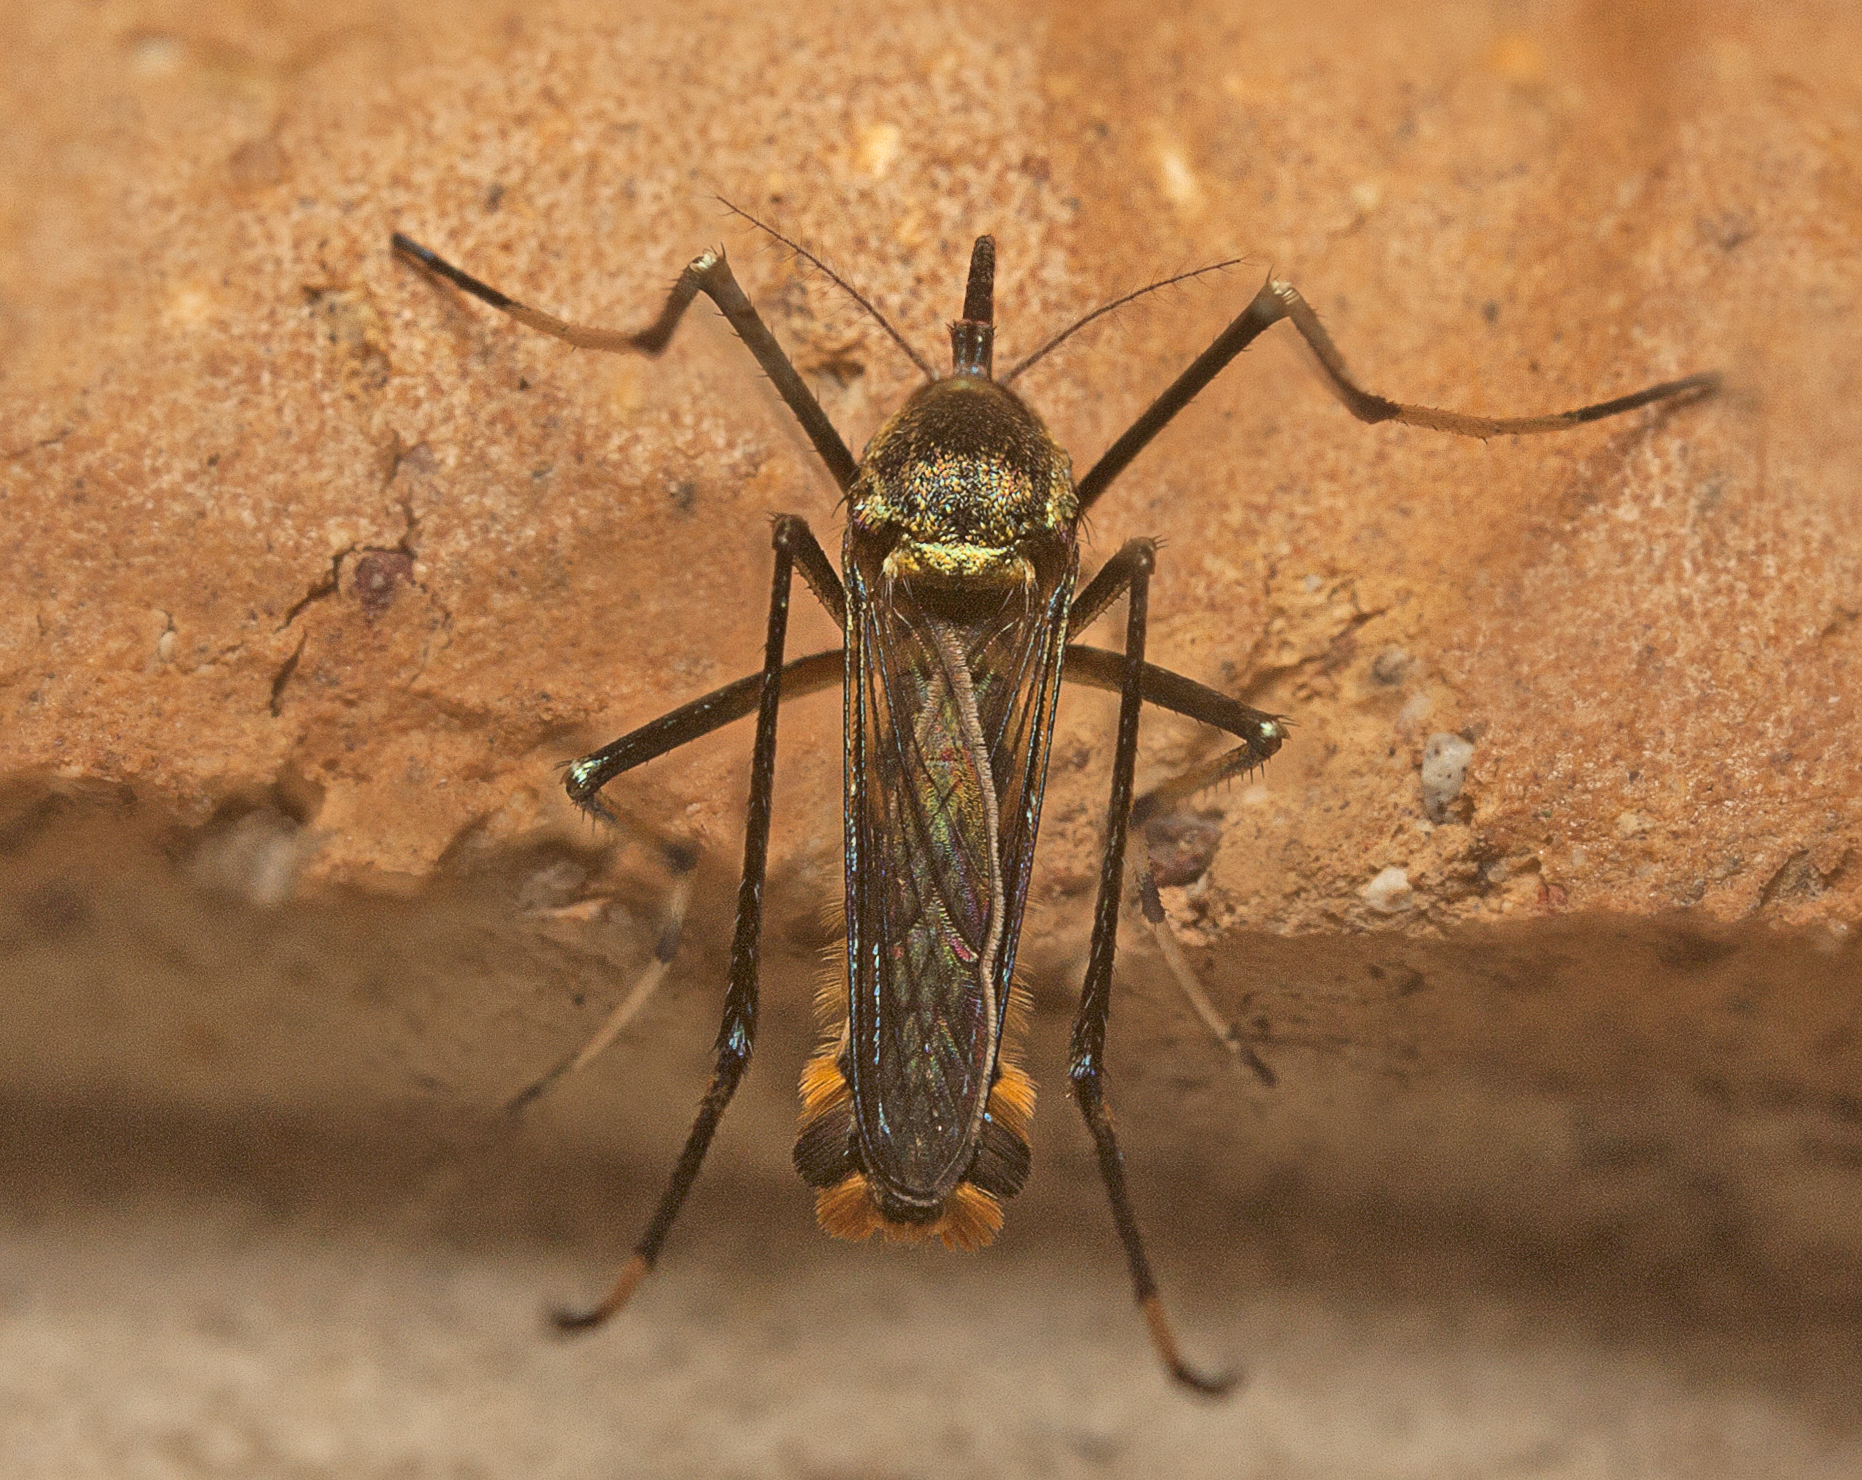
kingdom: Animalia
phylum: Arthropoda
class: Insecta
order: Diptera
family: Culicidae
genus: Toxorhynchites
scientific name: Toxorhynchites speciosus
